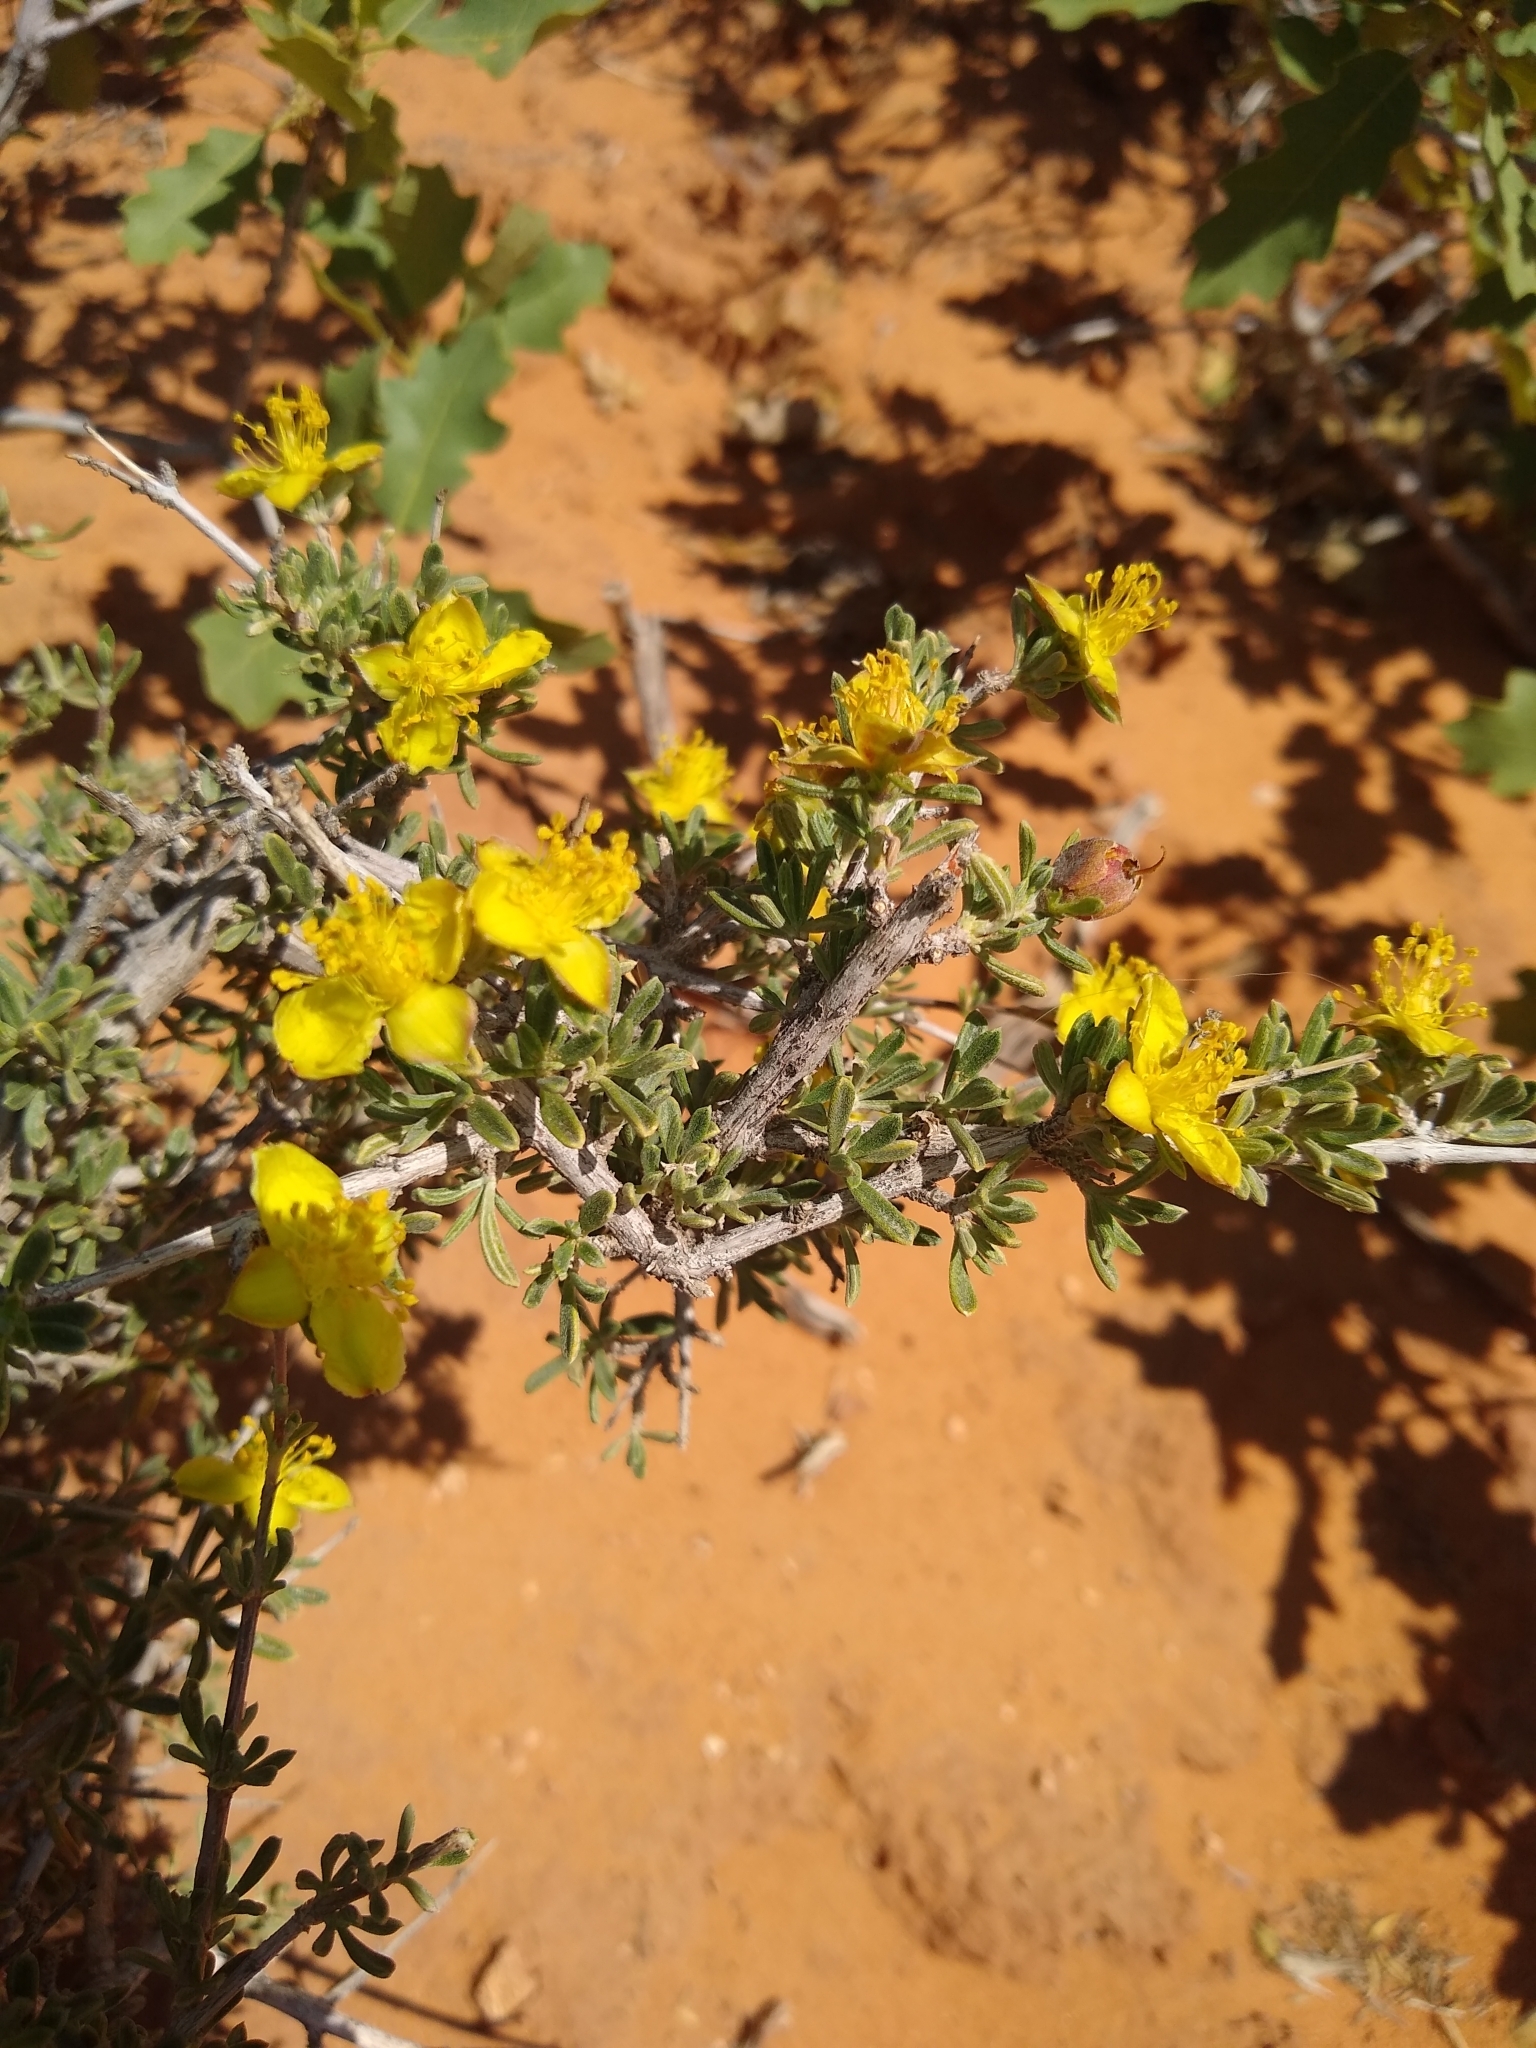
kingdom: Plantae
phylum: Tracheophyta
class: Magnoliopsida
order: Rosales
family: Rosaceae
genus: Coleogyne
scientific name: Coleogyne ramosissima
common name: Blackbrush
